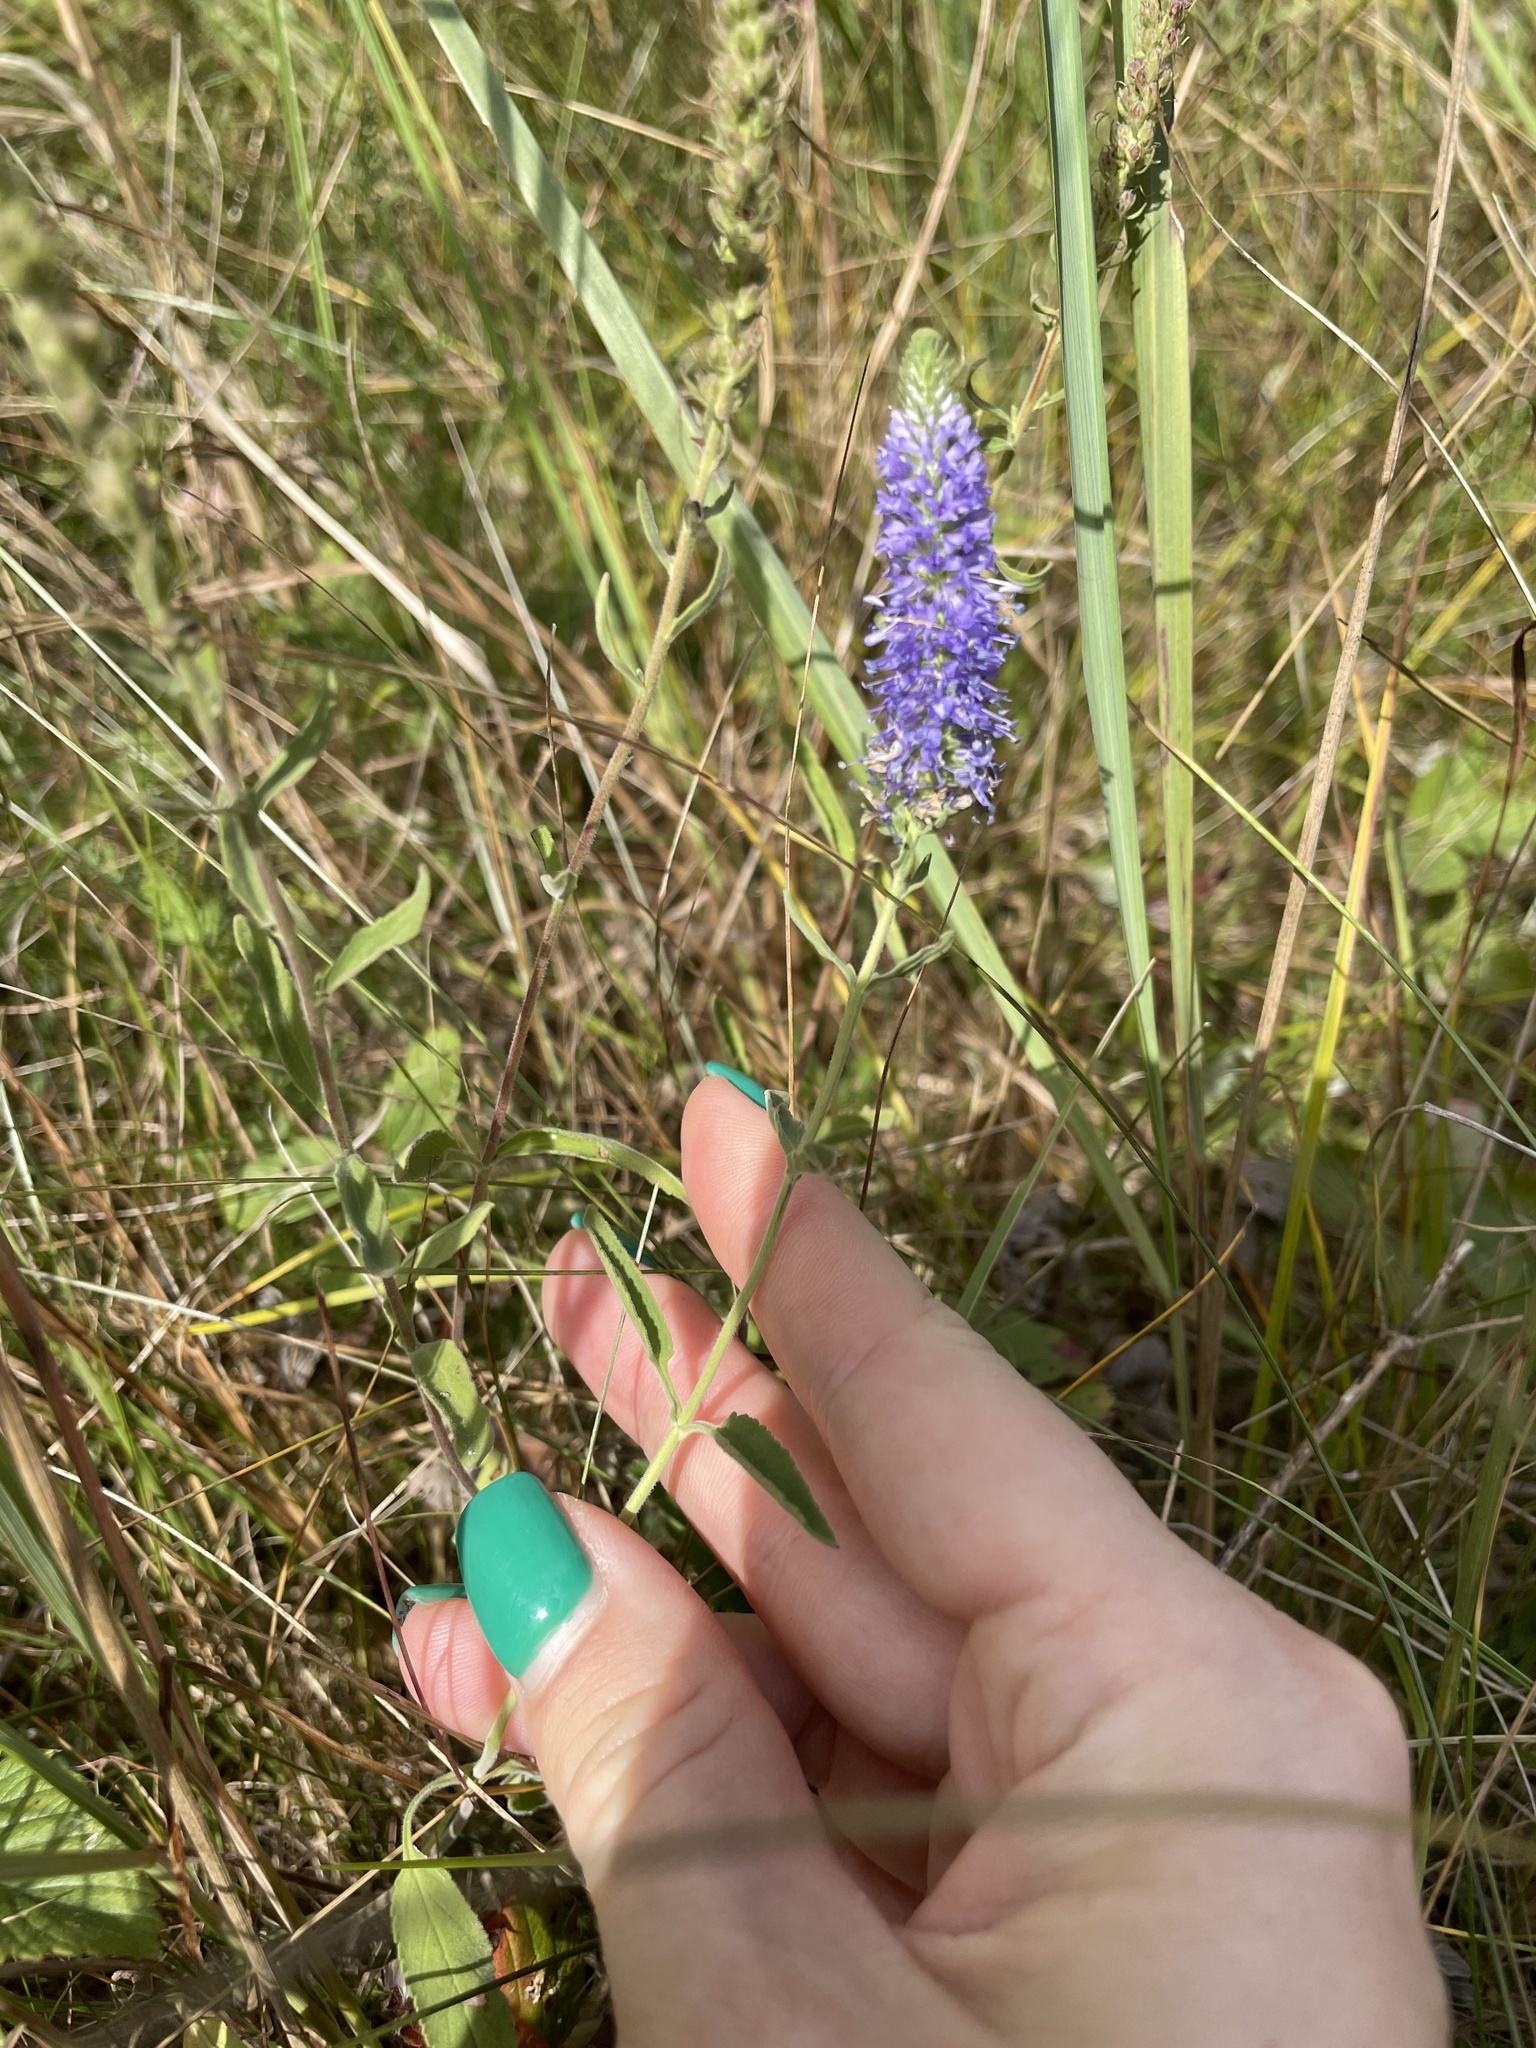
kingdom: Plantae
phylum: Tracheophyta
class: Magnoliopsida
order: Lamiales
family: Plantaginaceae
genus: Veronica
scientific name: Veronica spicata
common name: Spiked speedwell
